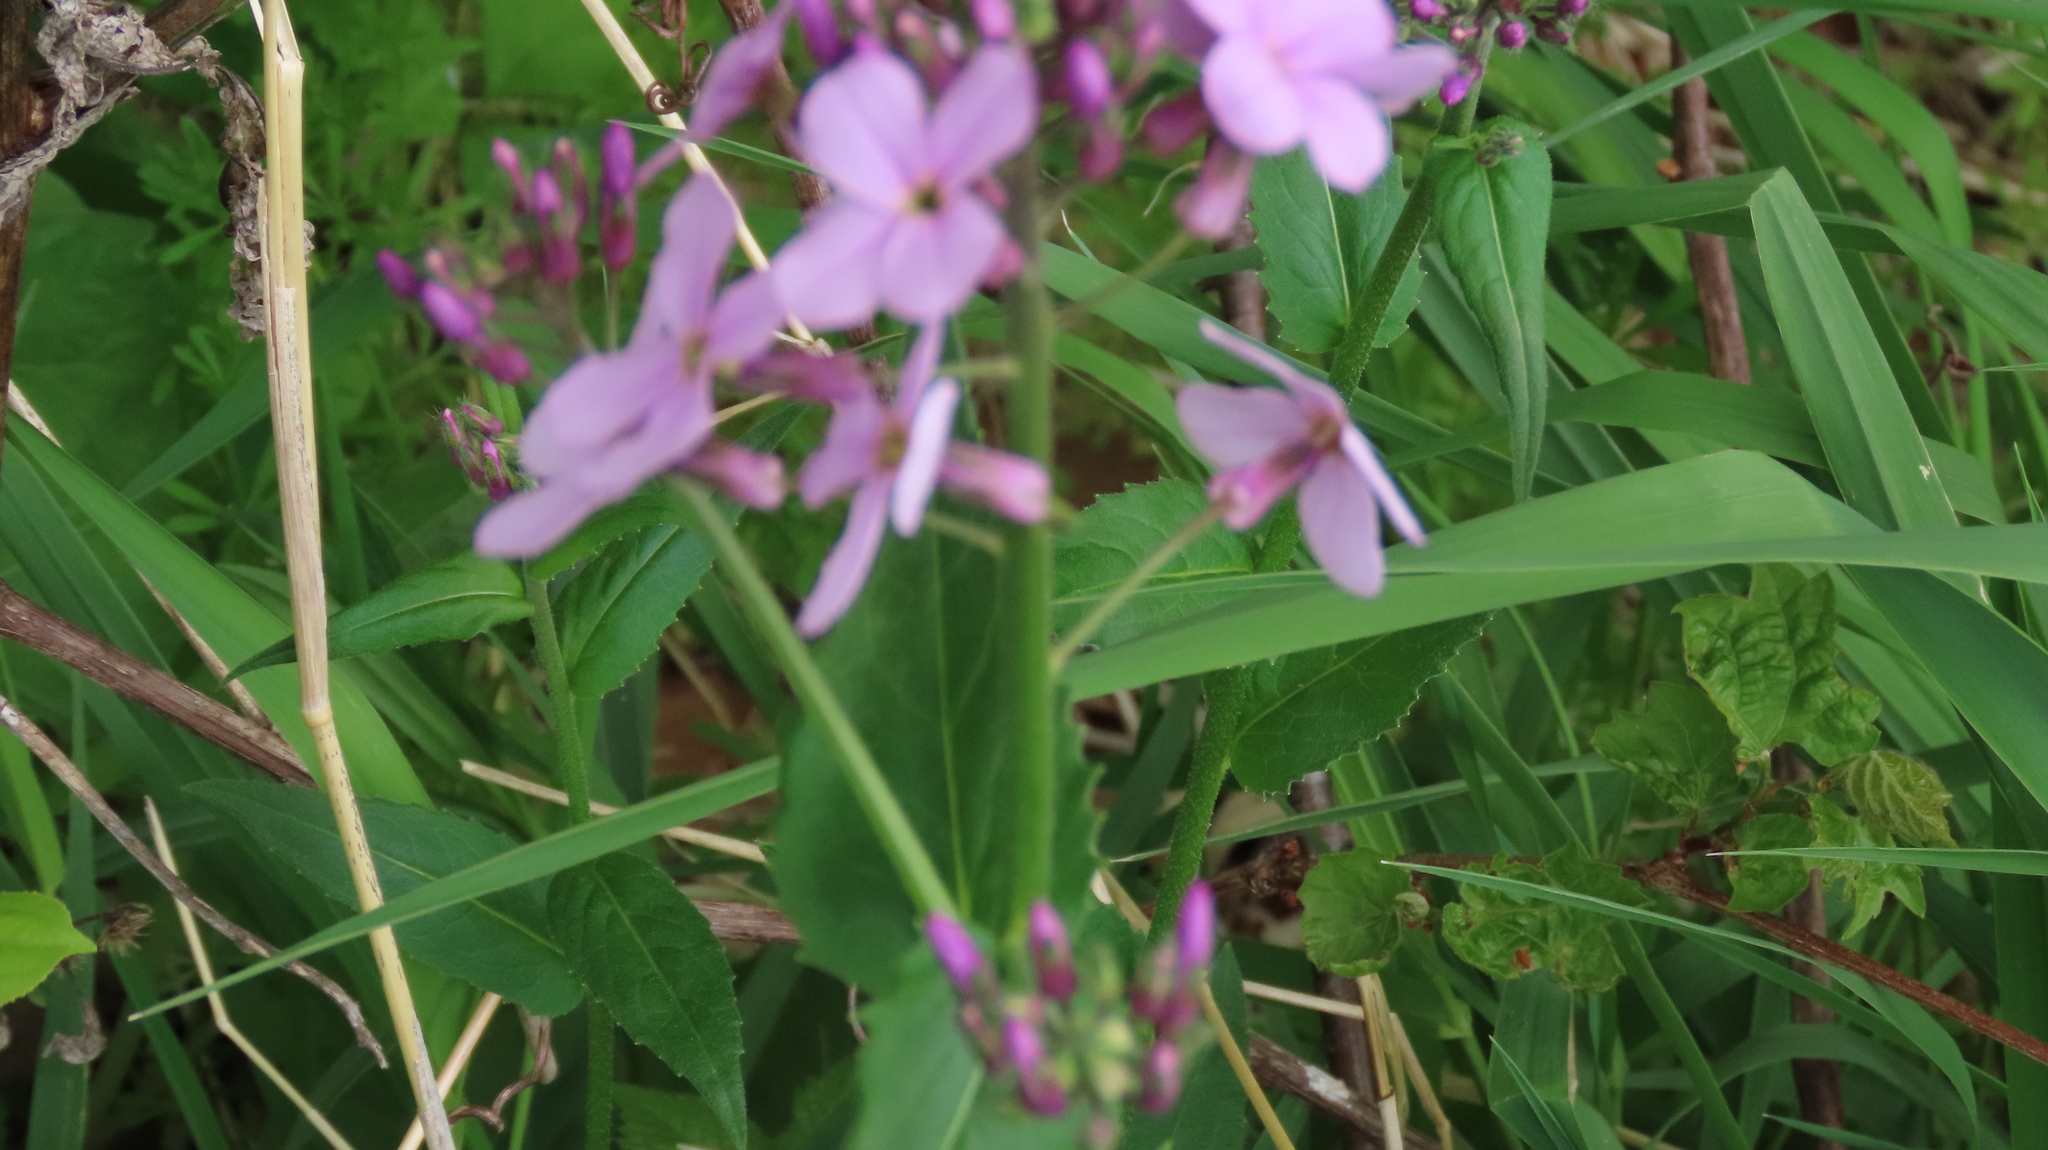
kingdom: Plantae
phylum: Tracheophyta
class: Magnoliopsida
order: Brassicales
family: Brassicaceae
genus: Hesperis
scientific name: Hesperis matronalis
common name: Dame's-violet
